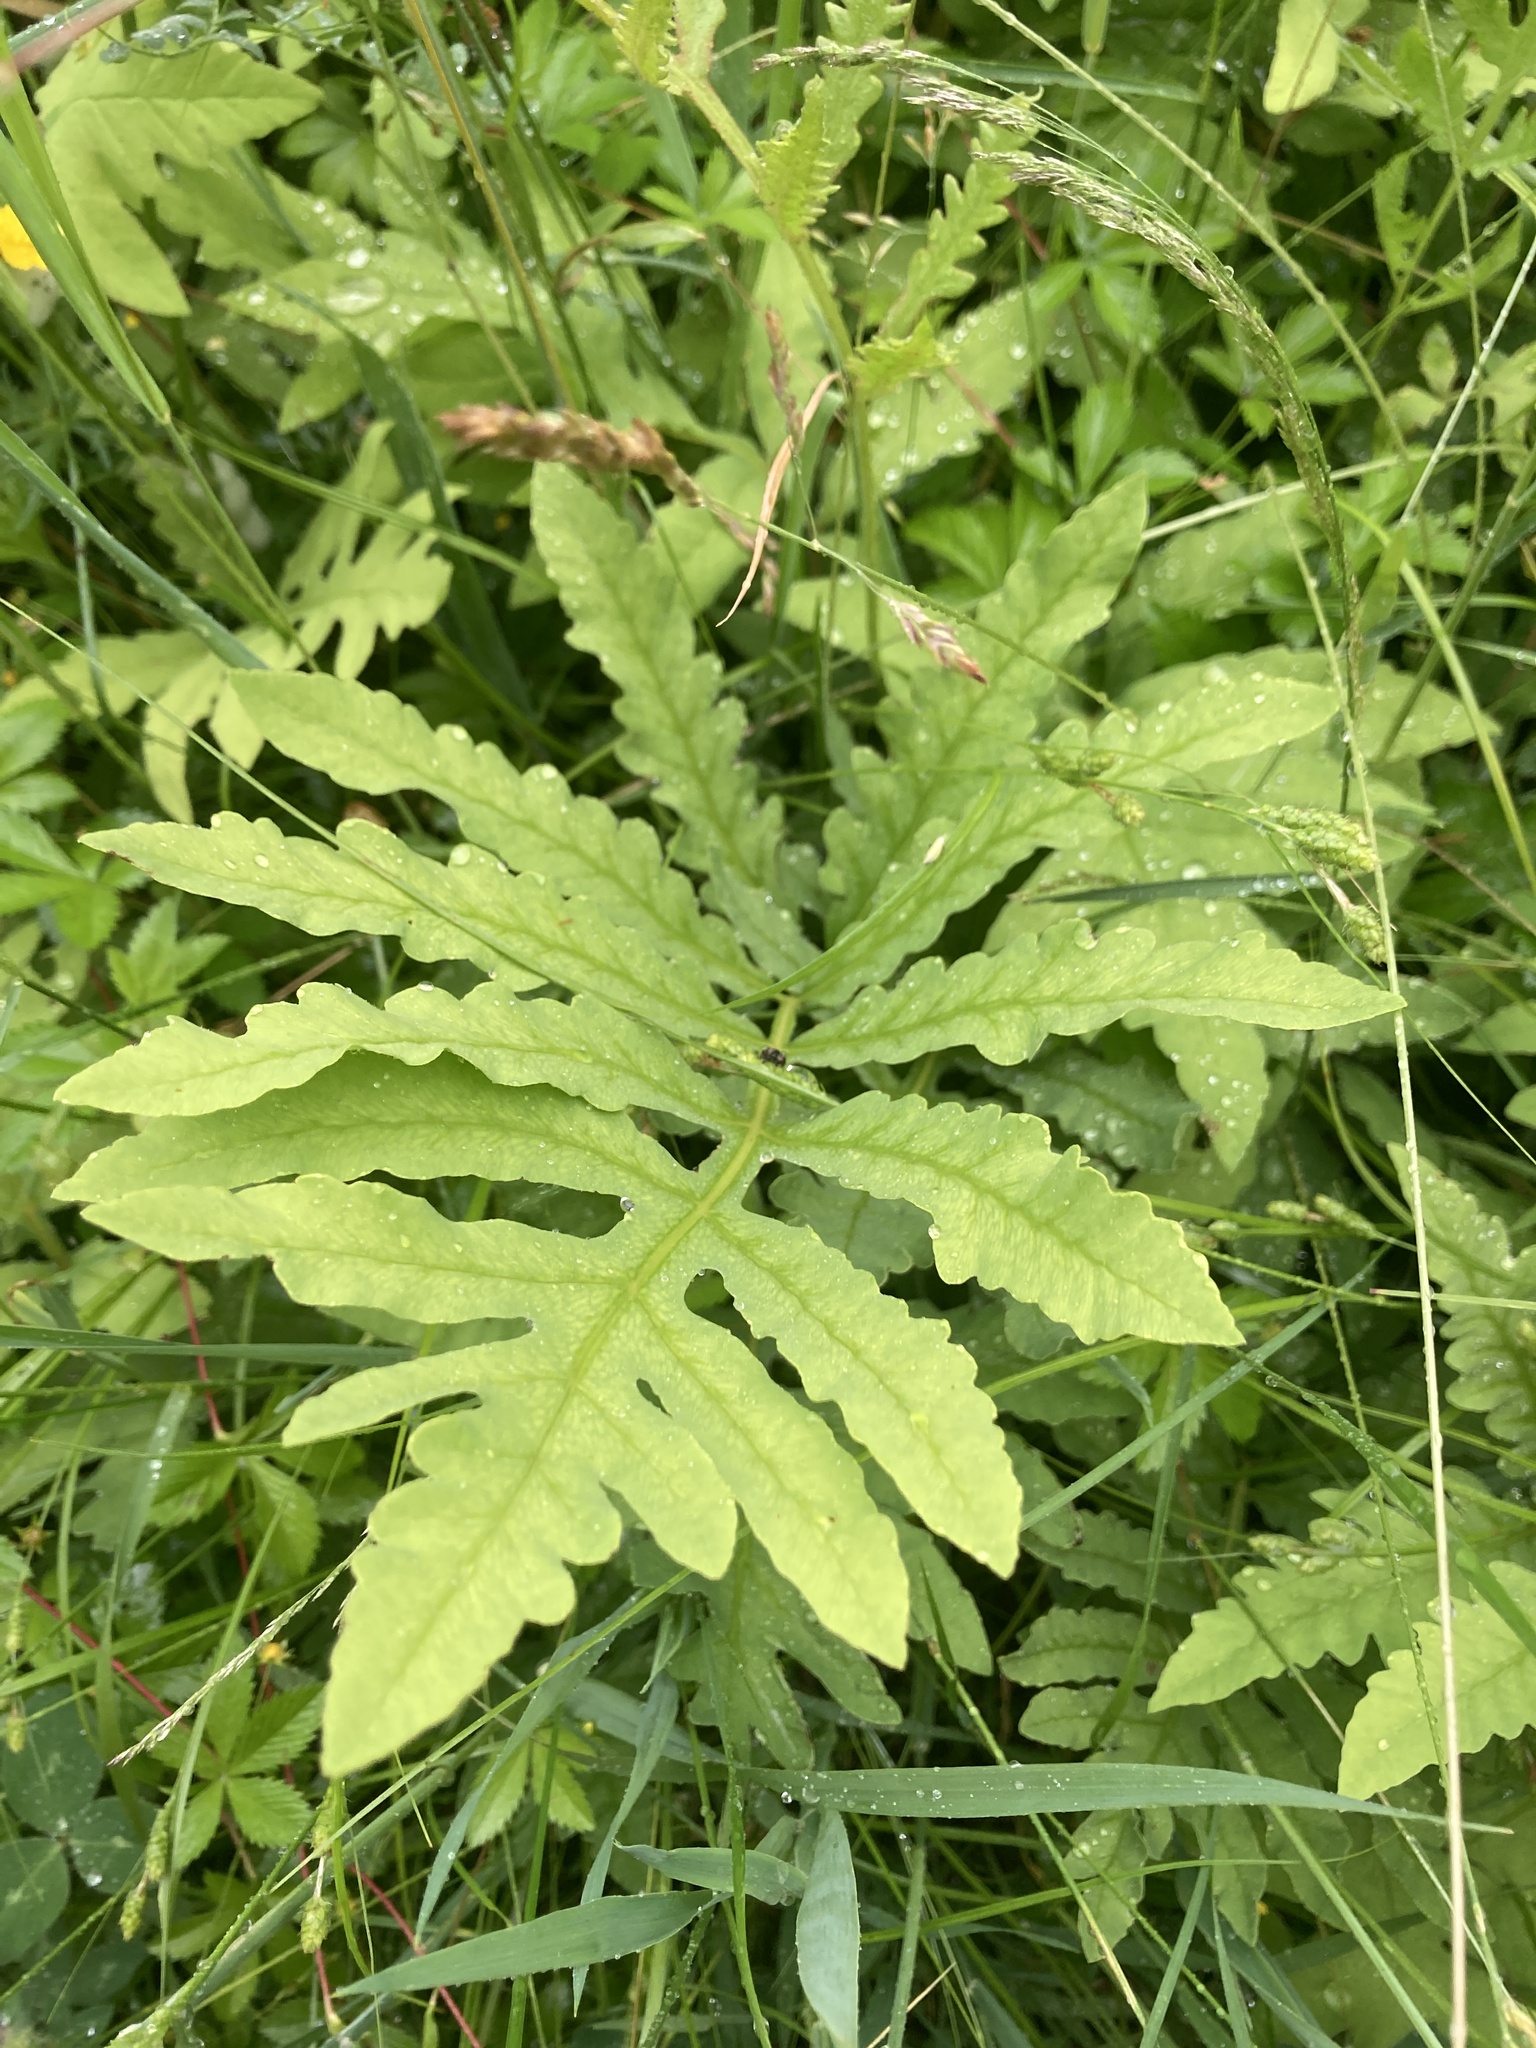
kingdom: Plantae
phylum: Tracheophyta
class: Polypodiopsida
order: Polypodiales
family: Onocleaceae
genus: Onoclea
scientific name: Onoclea sensibilis
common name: Sensitive fern
